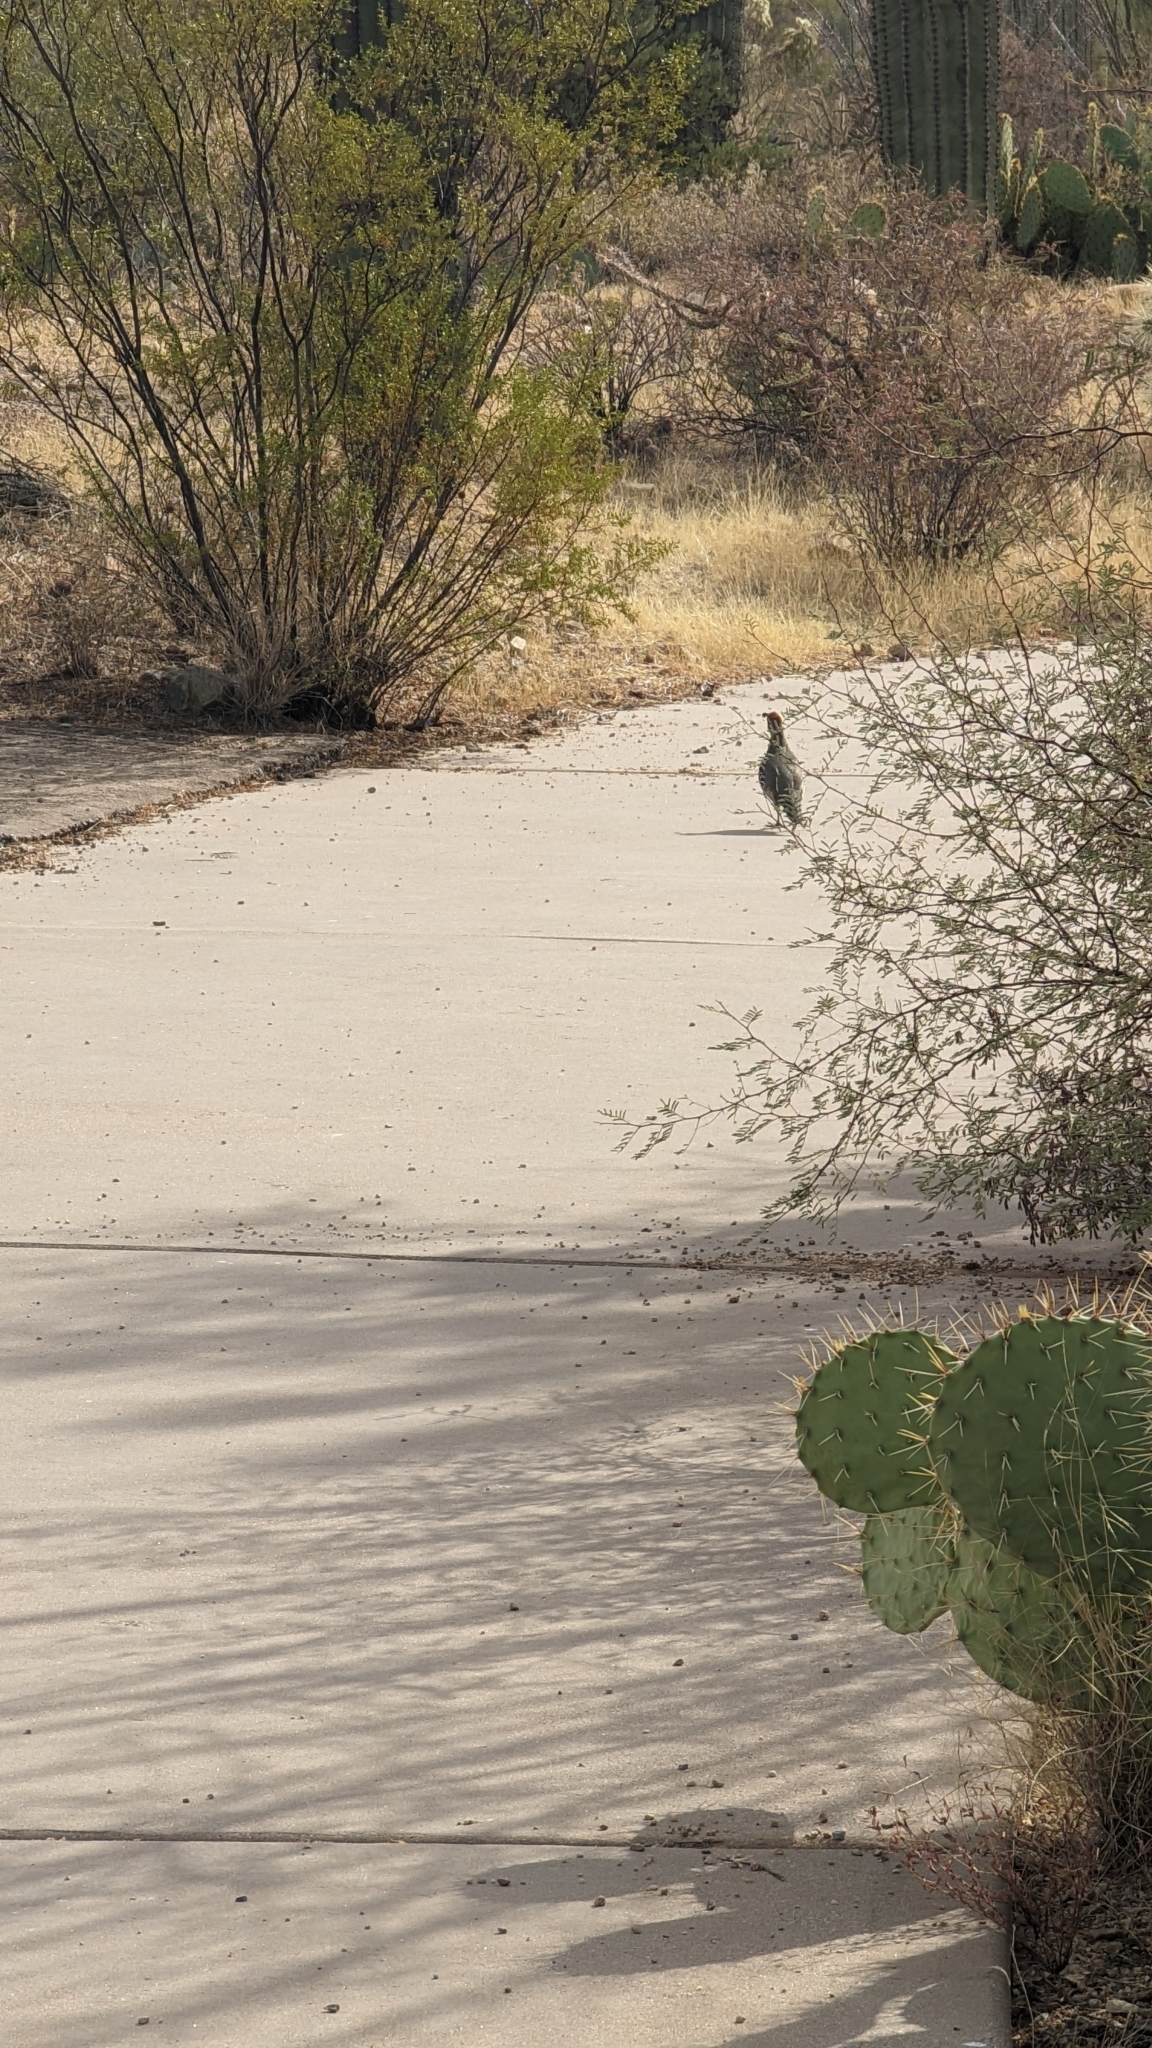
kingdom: Animalia
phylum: Chordata
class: Aves
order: Galliformes
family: Odontophoridae
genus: Callipepla
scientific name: Callipepla gambelii
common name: Gambel's quail
